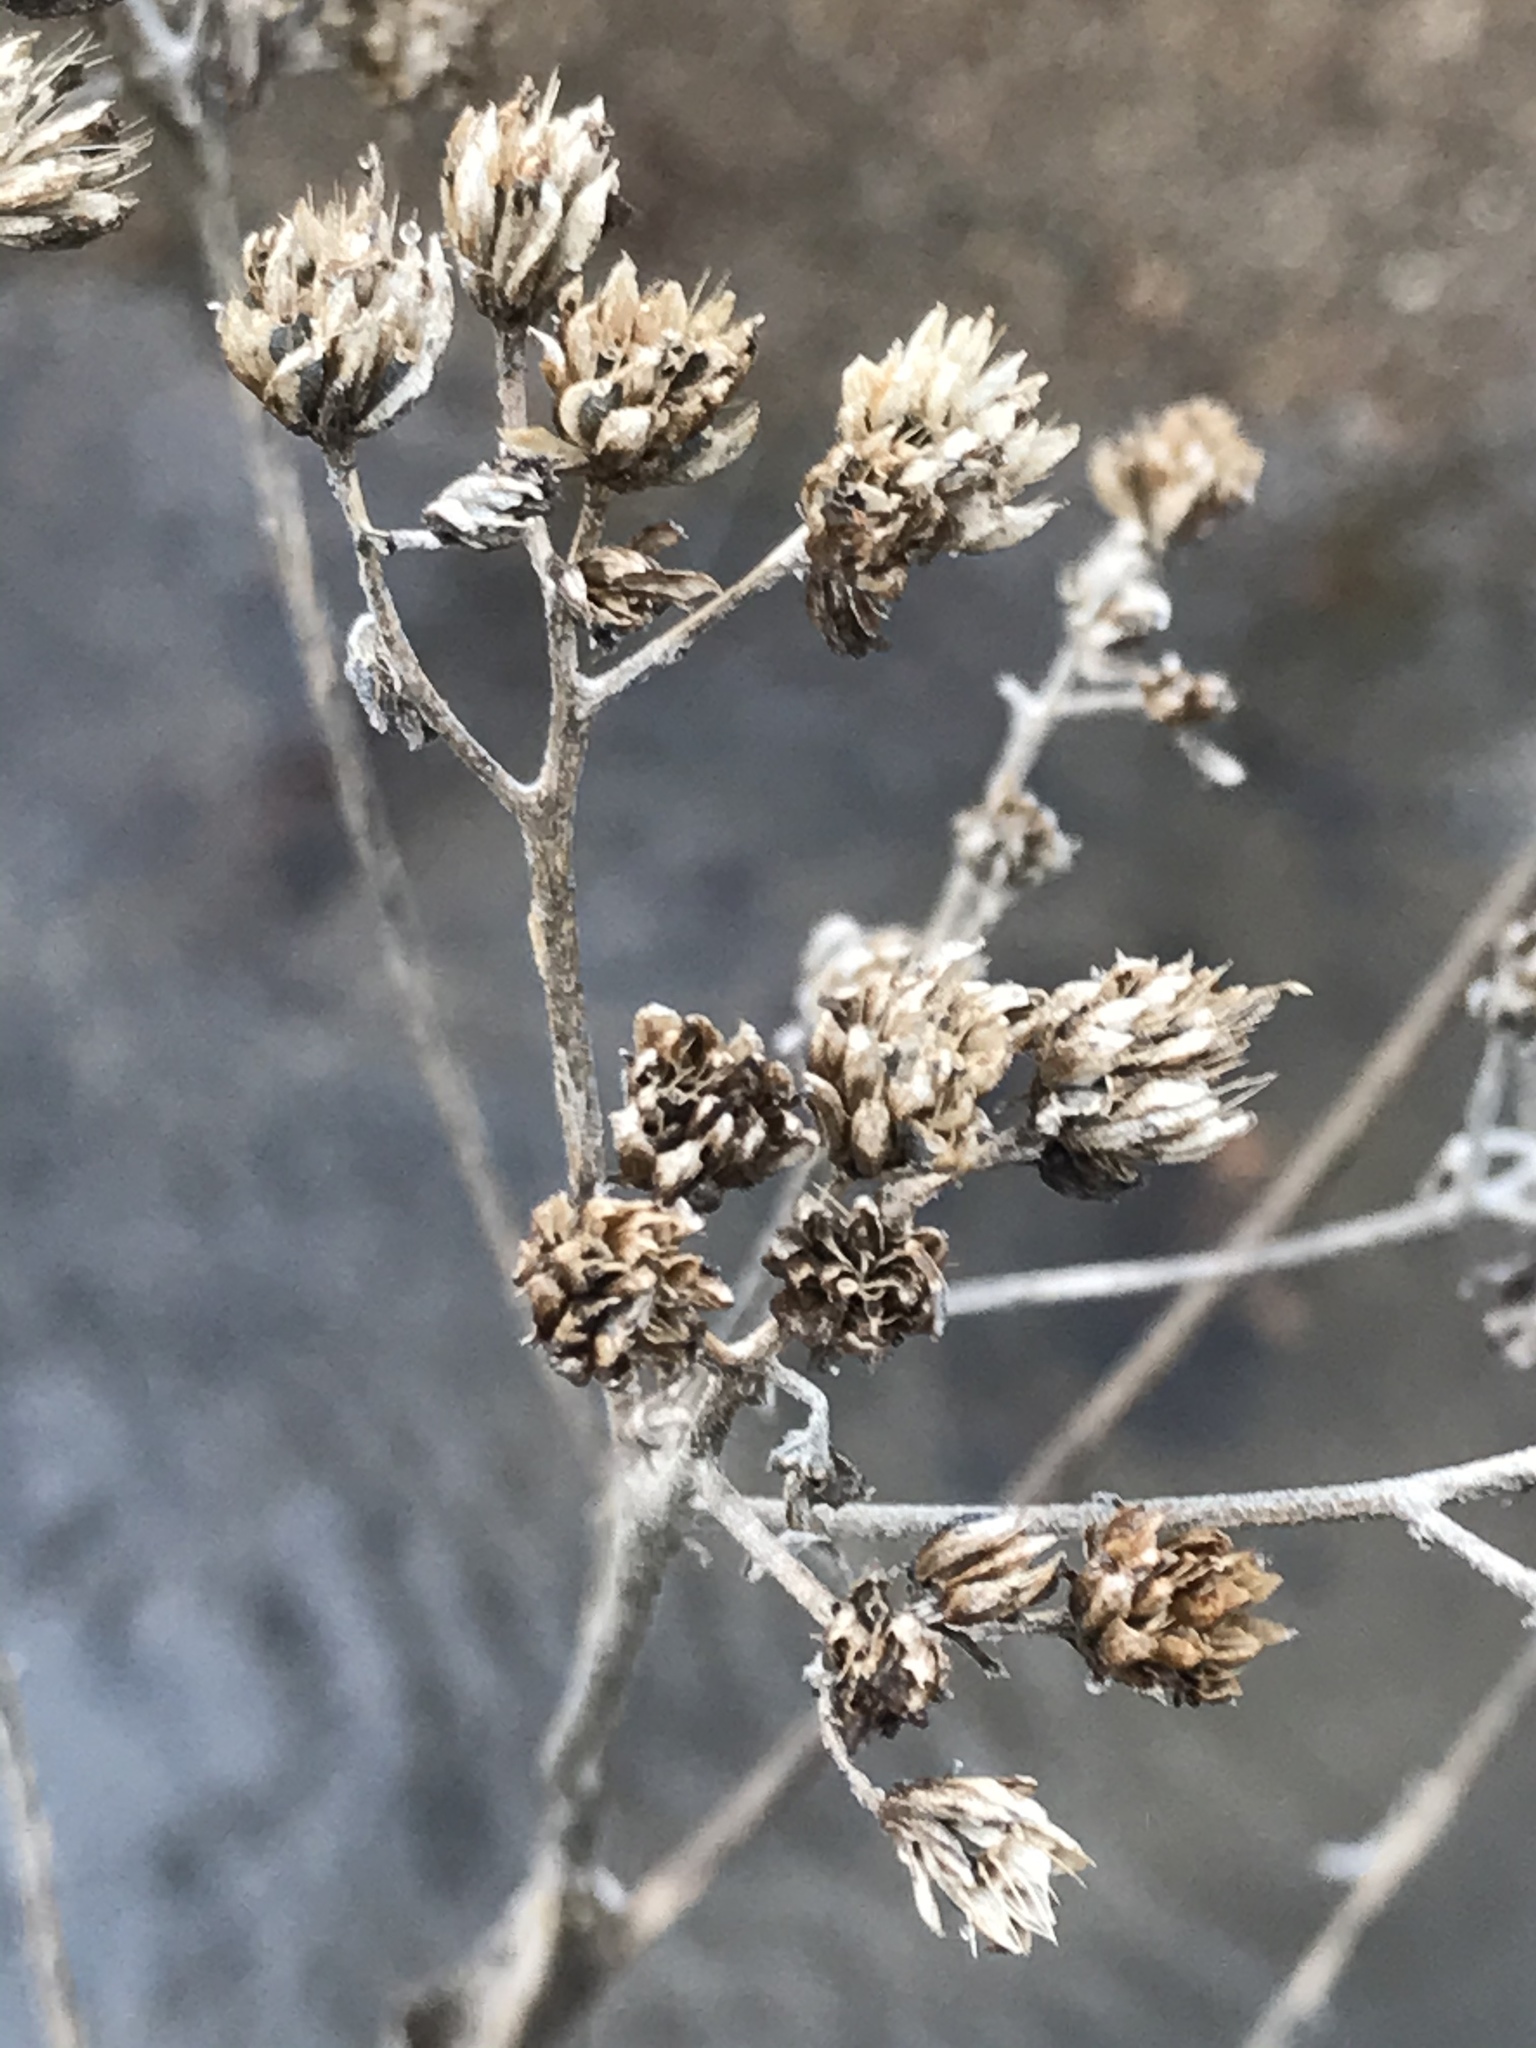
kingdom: Plantae
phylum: Tracheophyta
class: Magnoliopsida
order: Asterales
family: Asteraceae
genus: Verbesina
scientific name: Verbesina virginica
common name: Frostweed
